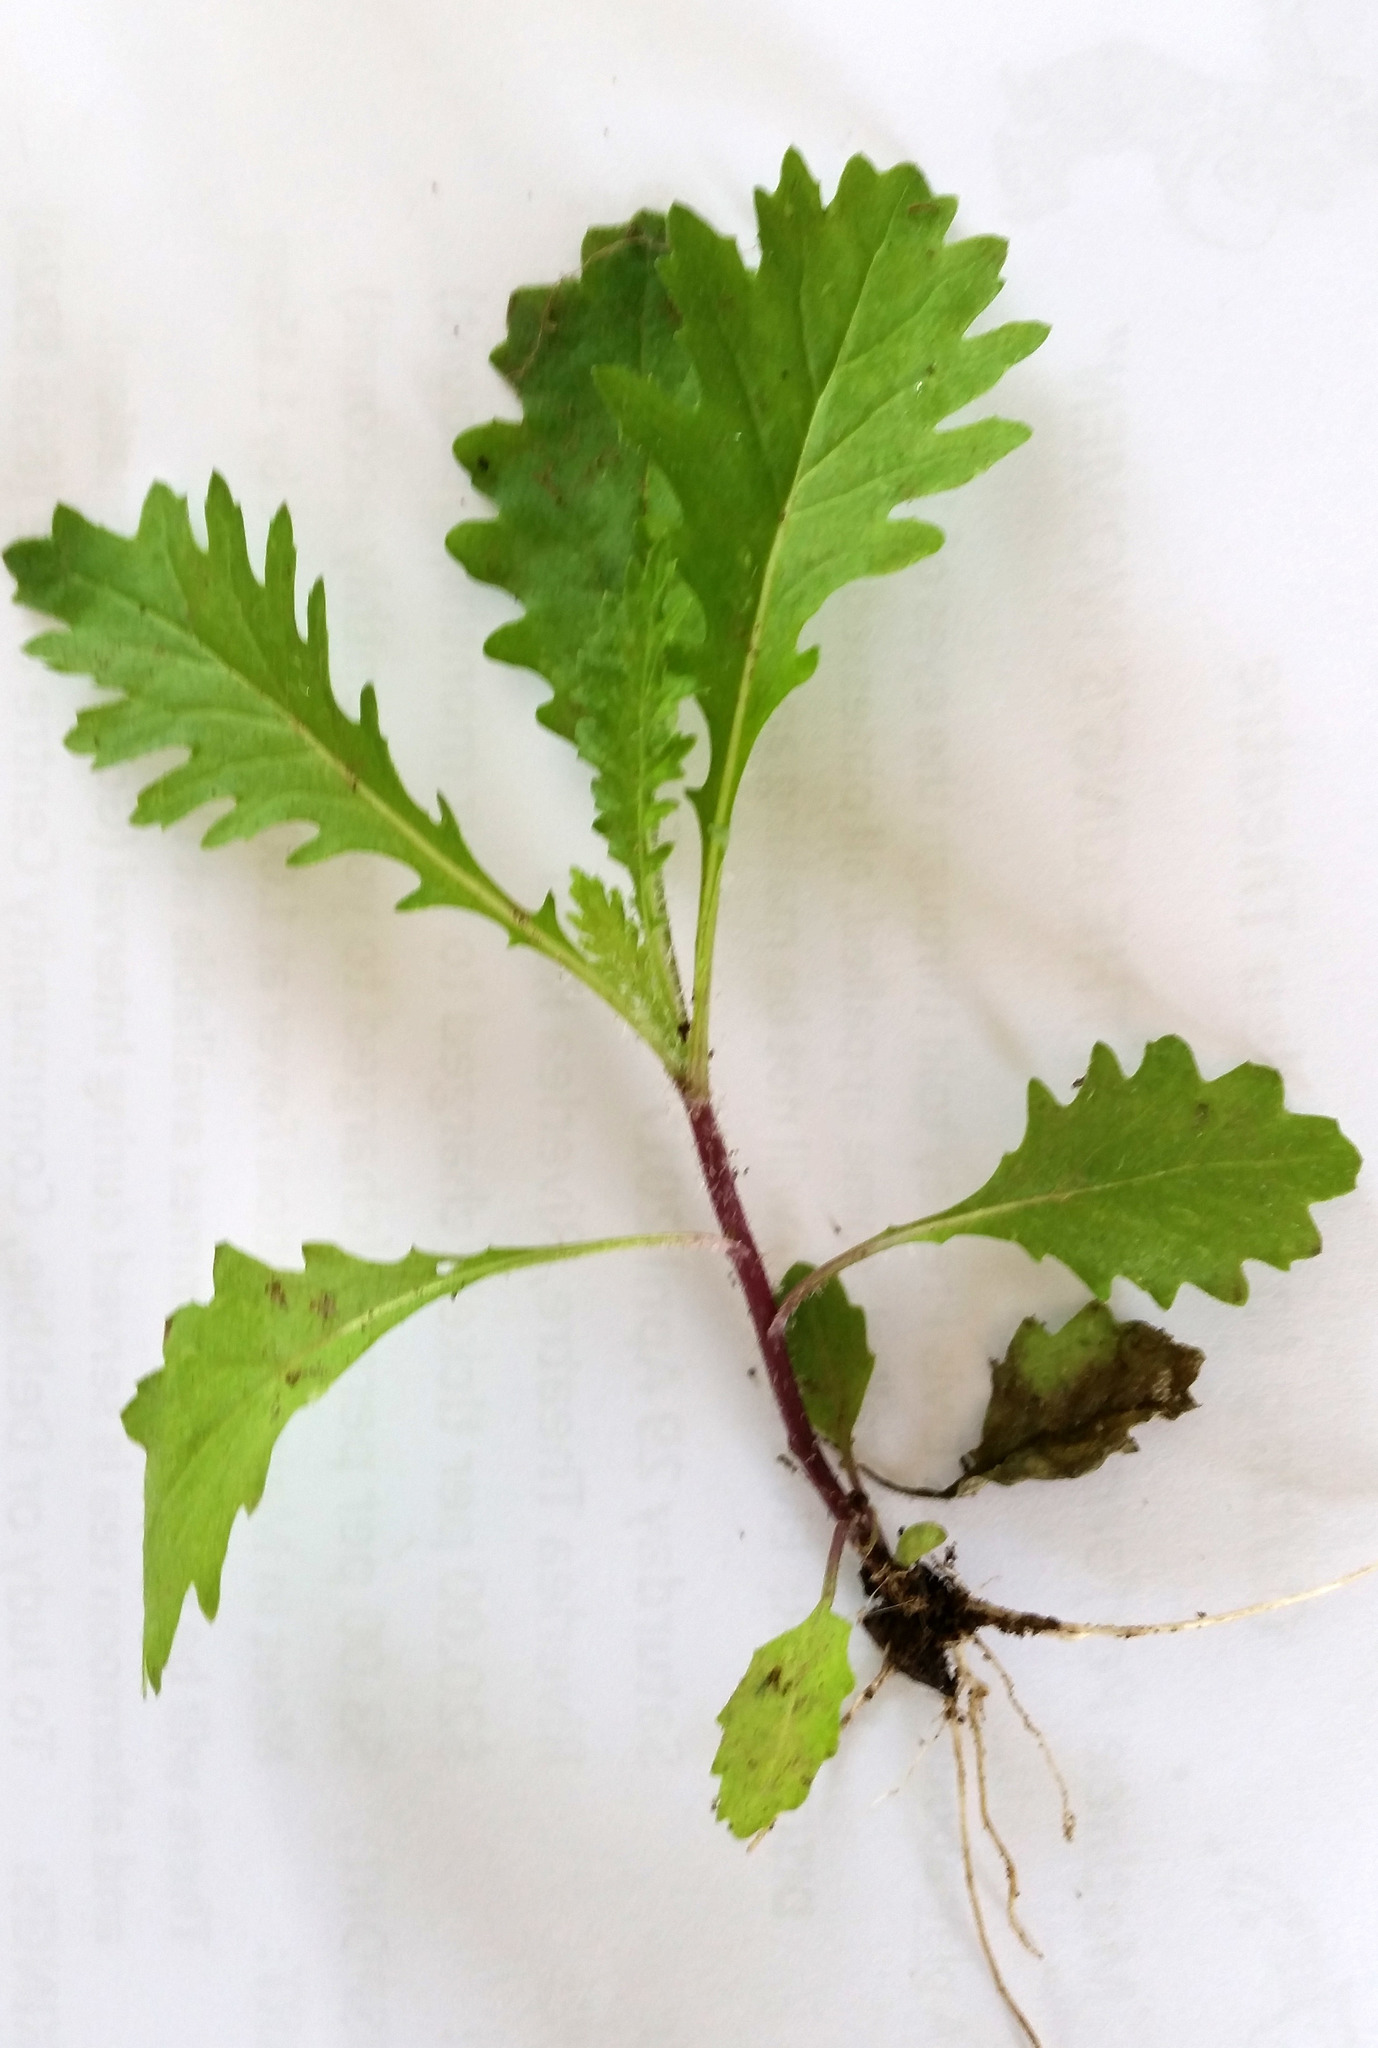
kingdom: Plantae
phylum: Tracheophyta
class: Magnoliopsida
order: Asterales
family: Asteraceae
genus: Senecio
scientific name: Senecio esleri
